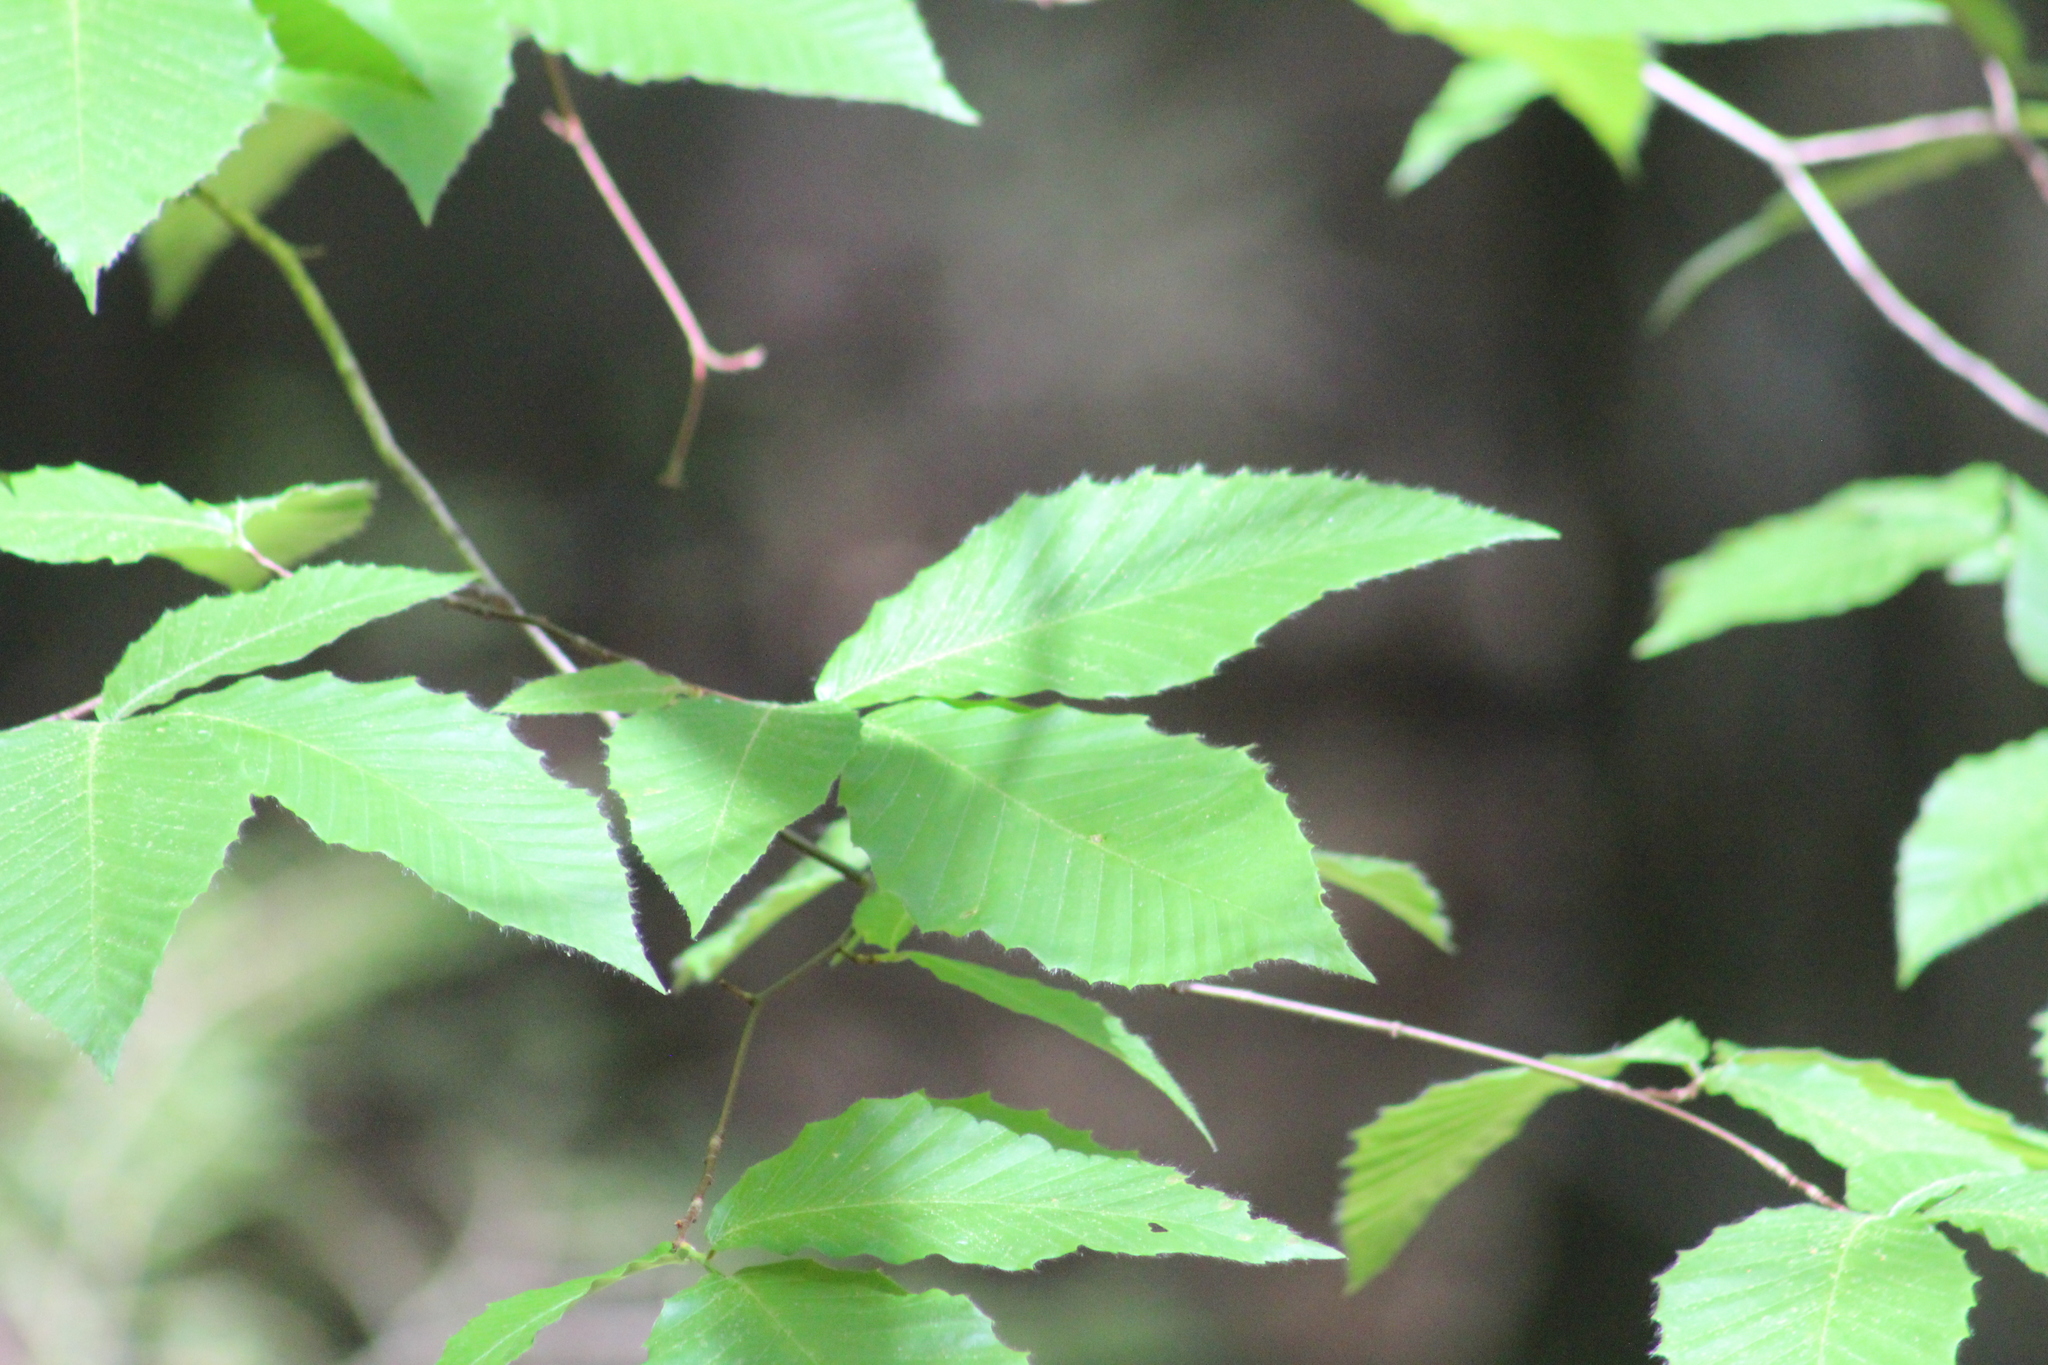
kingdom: Plantae
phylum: Tracheophyta
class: Magnoliopsida
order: Fagales
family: Fagaceae
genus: Fagus
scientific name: Fagus grandifolia
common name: American beech
